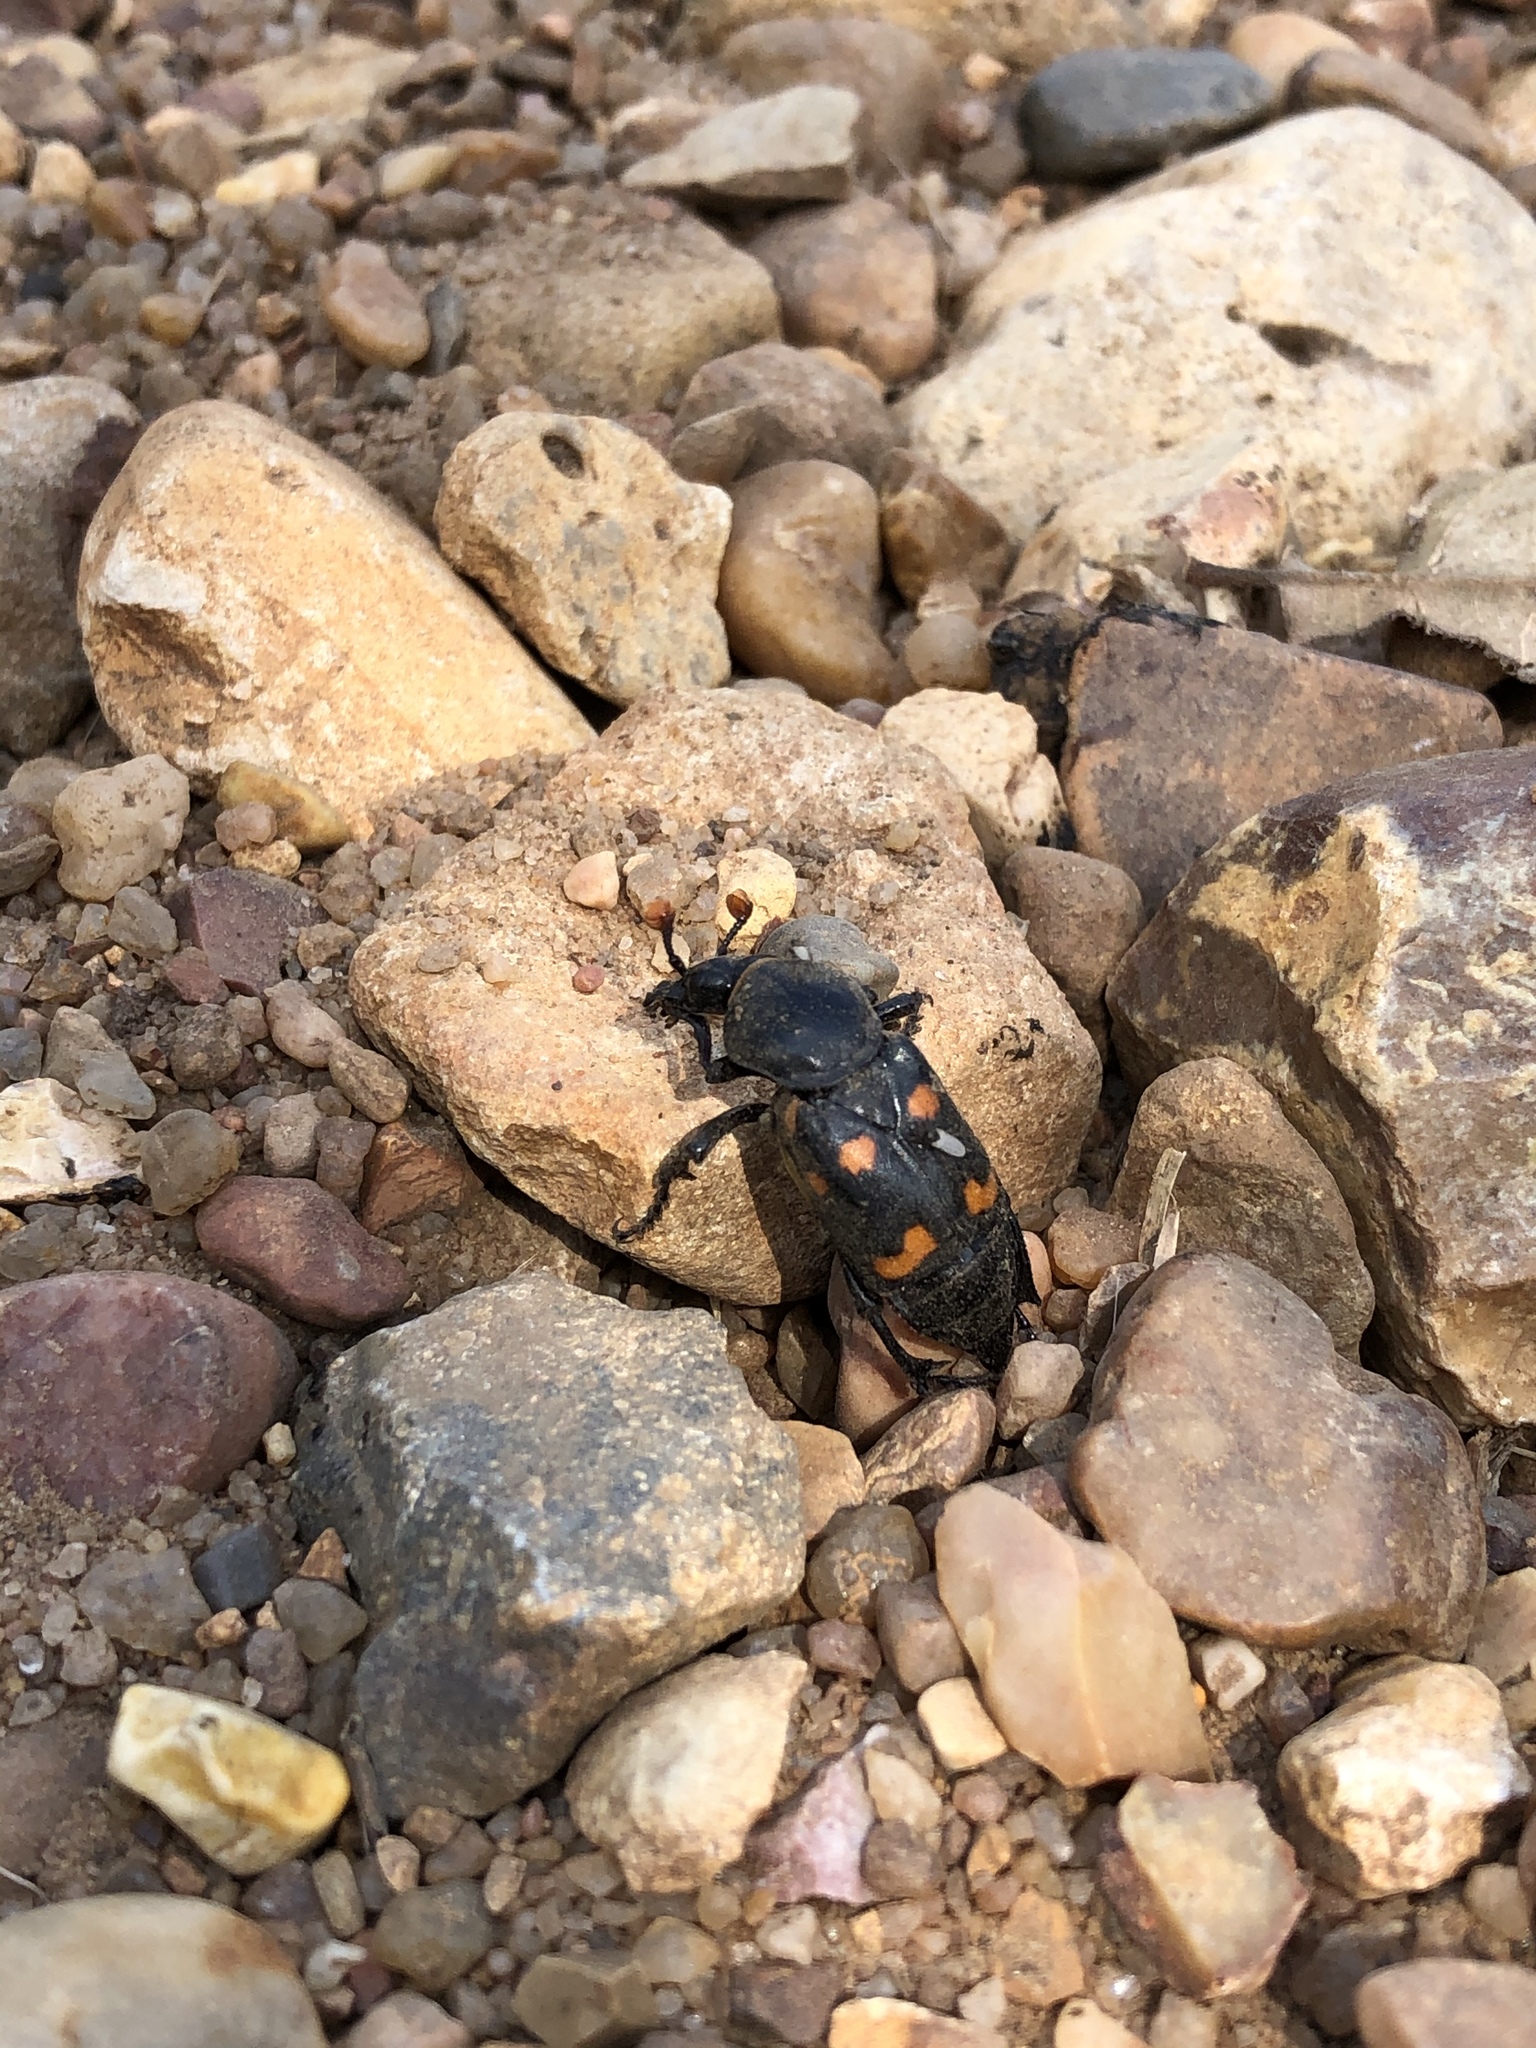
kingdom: Animalia
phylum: Arthropoda
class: Insecta
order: Coleoptera
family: Staphylinidae
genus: Nicrophorus
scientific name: Nicrophorus carolinus
